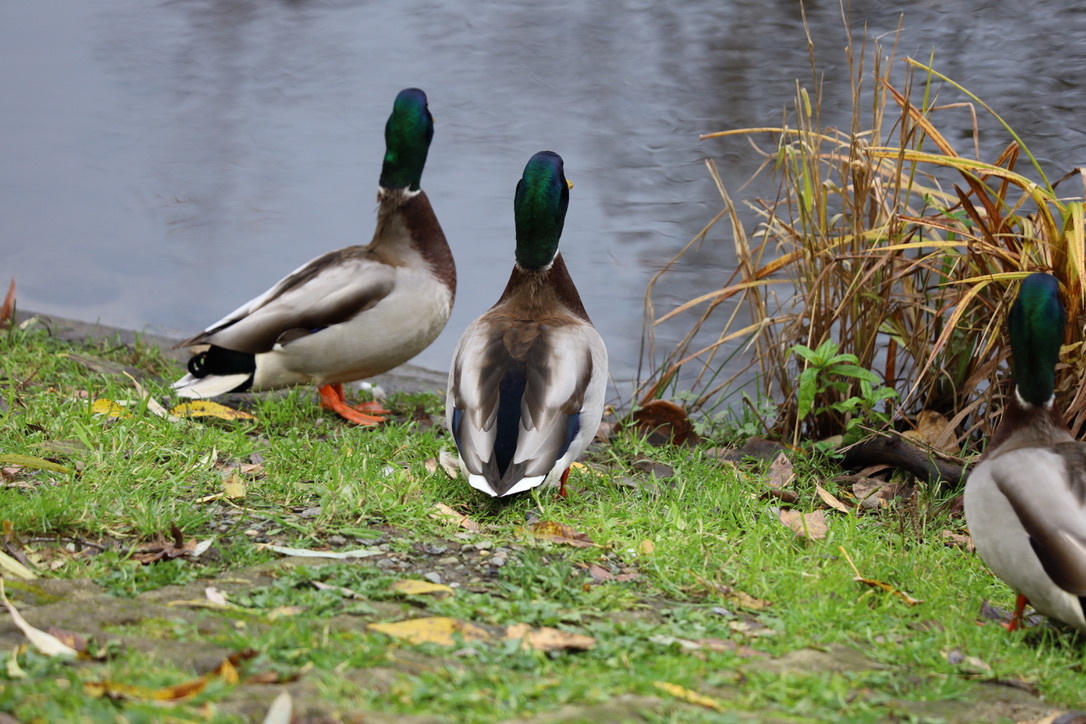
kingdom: Animalia
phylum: Chordata
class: Aves
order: Anseriformes
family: Anatidae
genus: Anas
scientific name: Anas platyrhynchos
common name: Mallard
